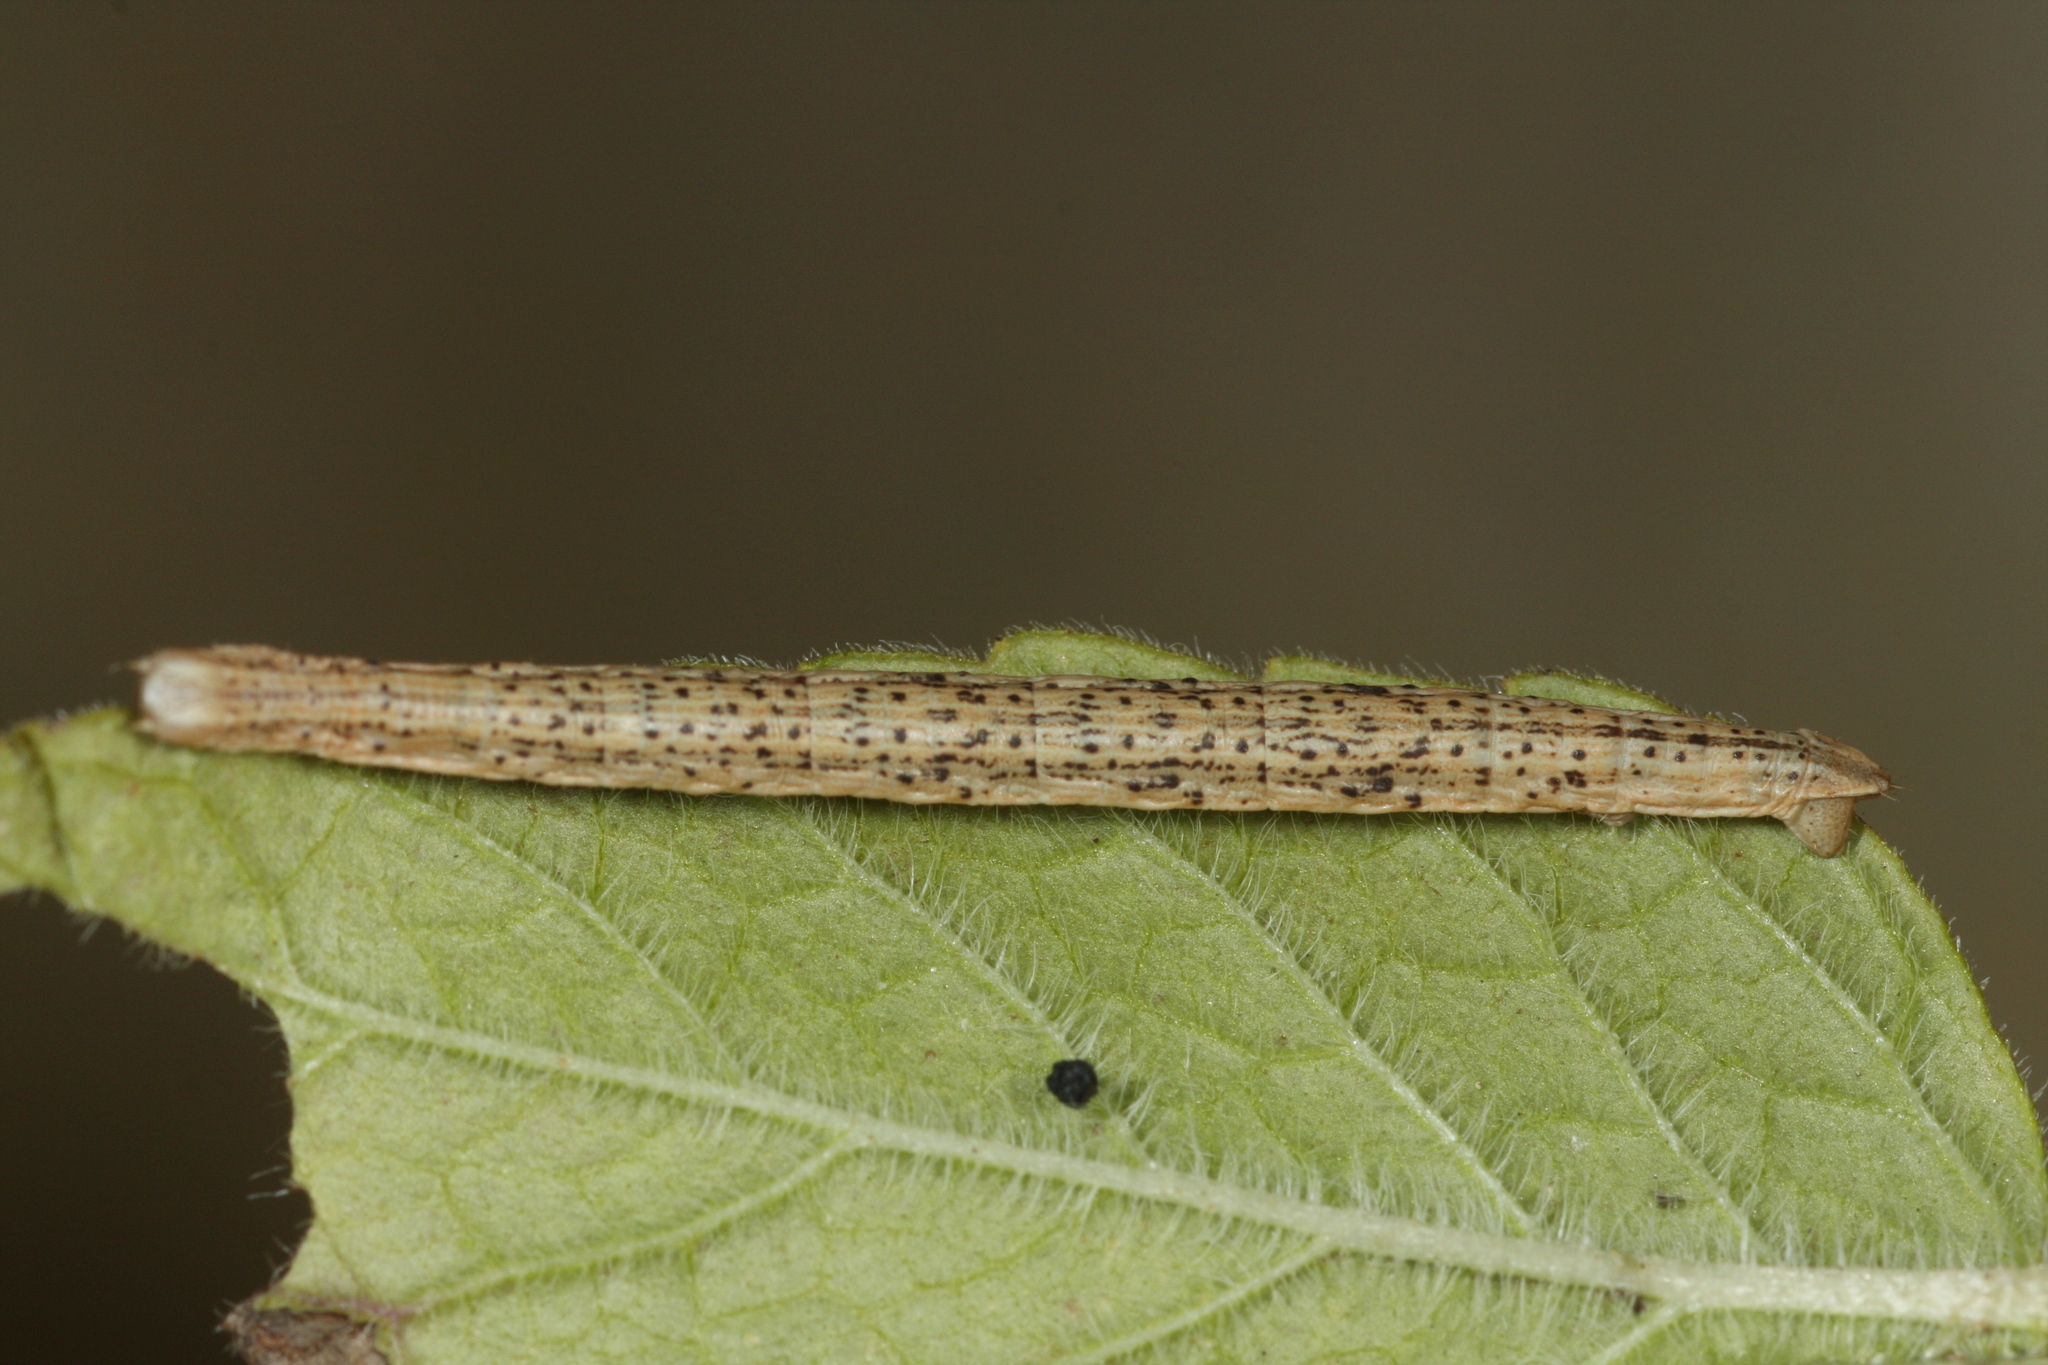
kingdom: Animalia
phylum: Arthropoda
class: Insecta
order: Lepidoptera
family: Geometridae
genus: Siona
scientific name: Siona lineata
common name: Black-veined moth
